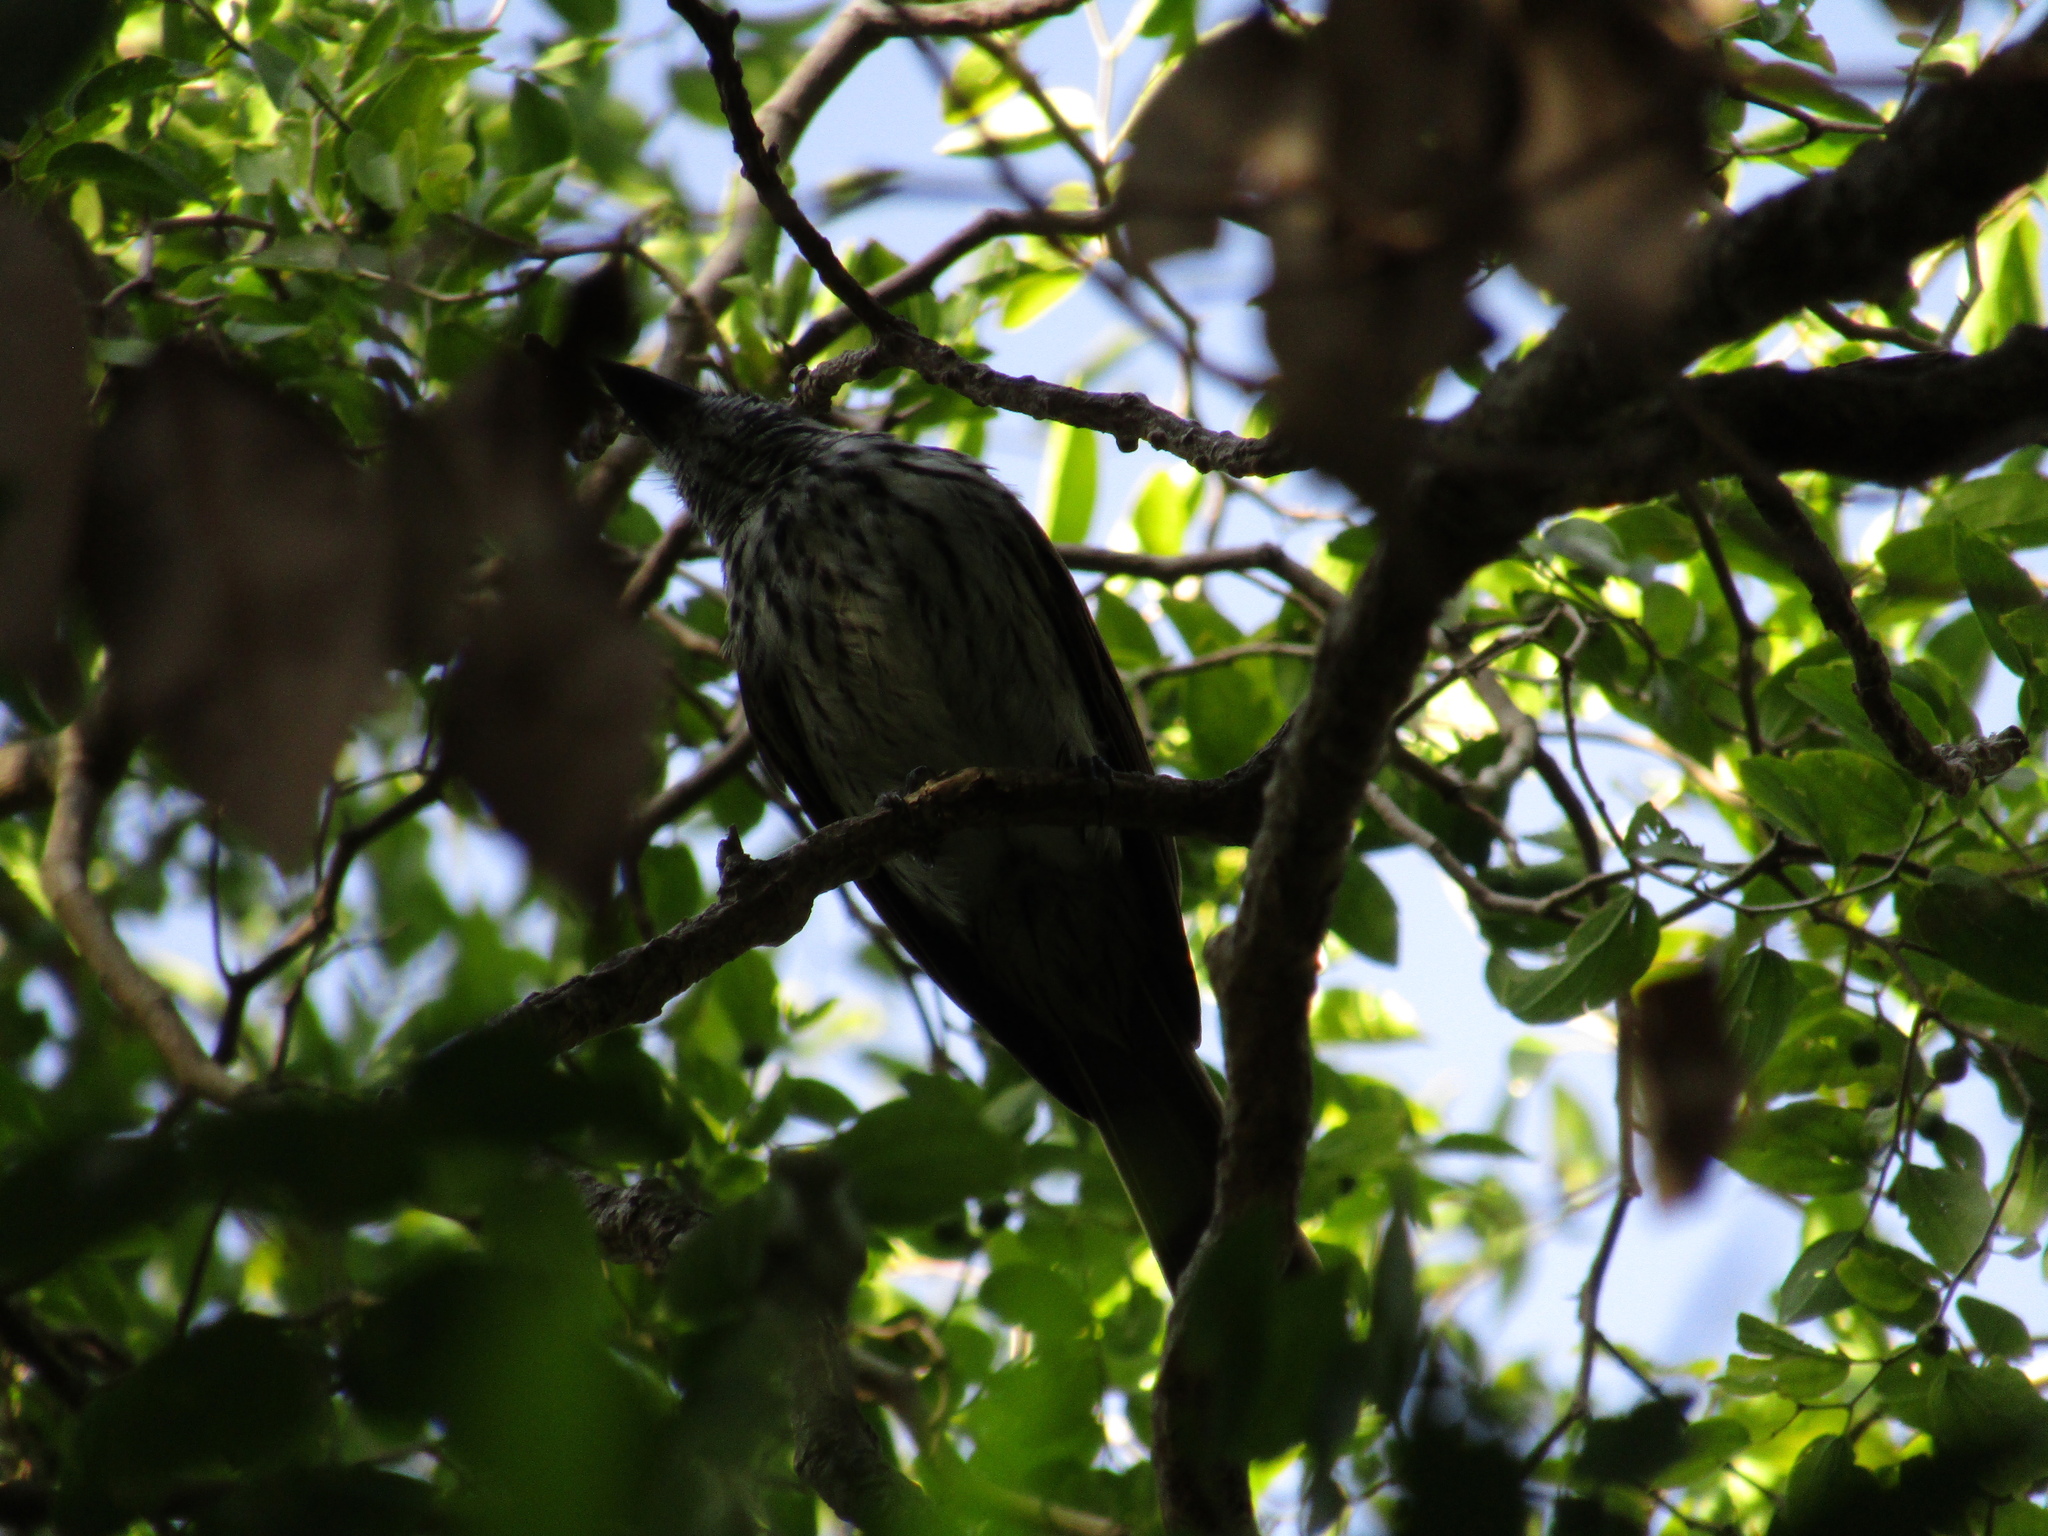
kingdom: Animalia
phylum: Chordata
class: Aves
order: Passeriformes
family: Tyrannidae
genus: Myiodynastes
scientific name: Myiodynastes maculatus
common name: Streaked flycatcher
